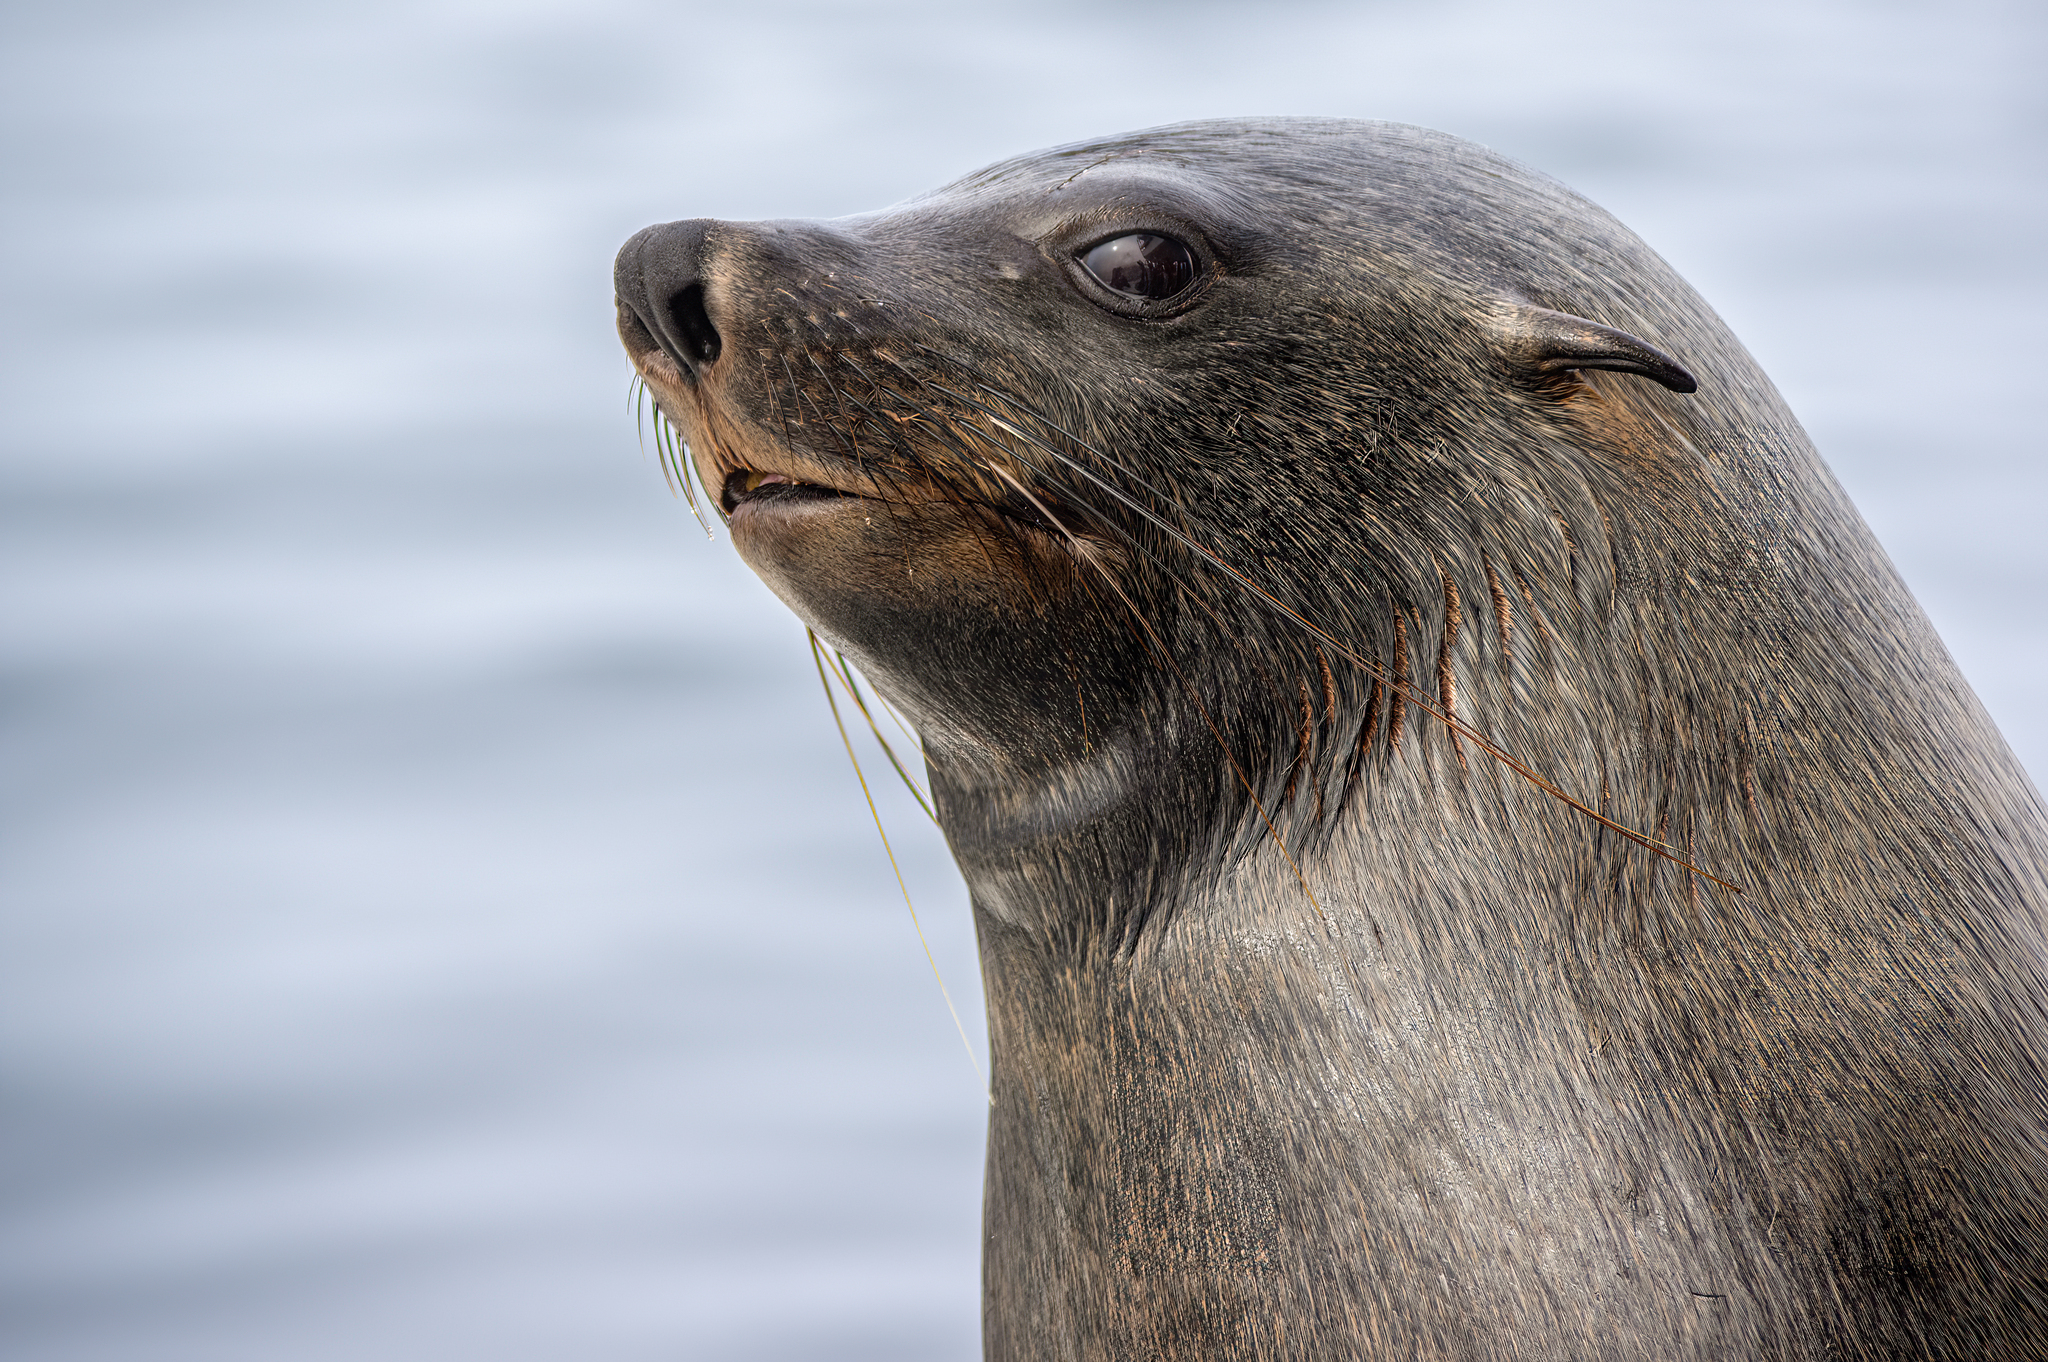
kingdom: Animalia
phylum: Chordata
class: Mammalia
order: Carnivora
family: Otariidae
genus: Arctocephalus
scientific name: Arctocephalus pusillus
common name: Brown fur seal
